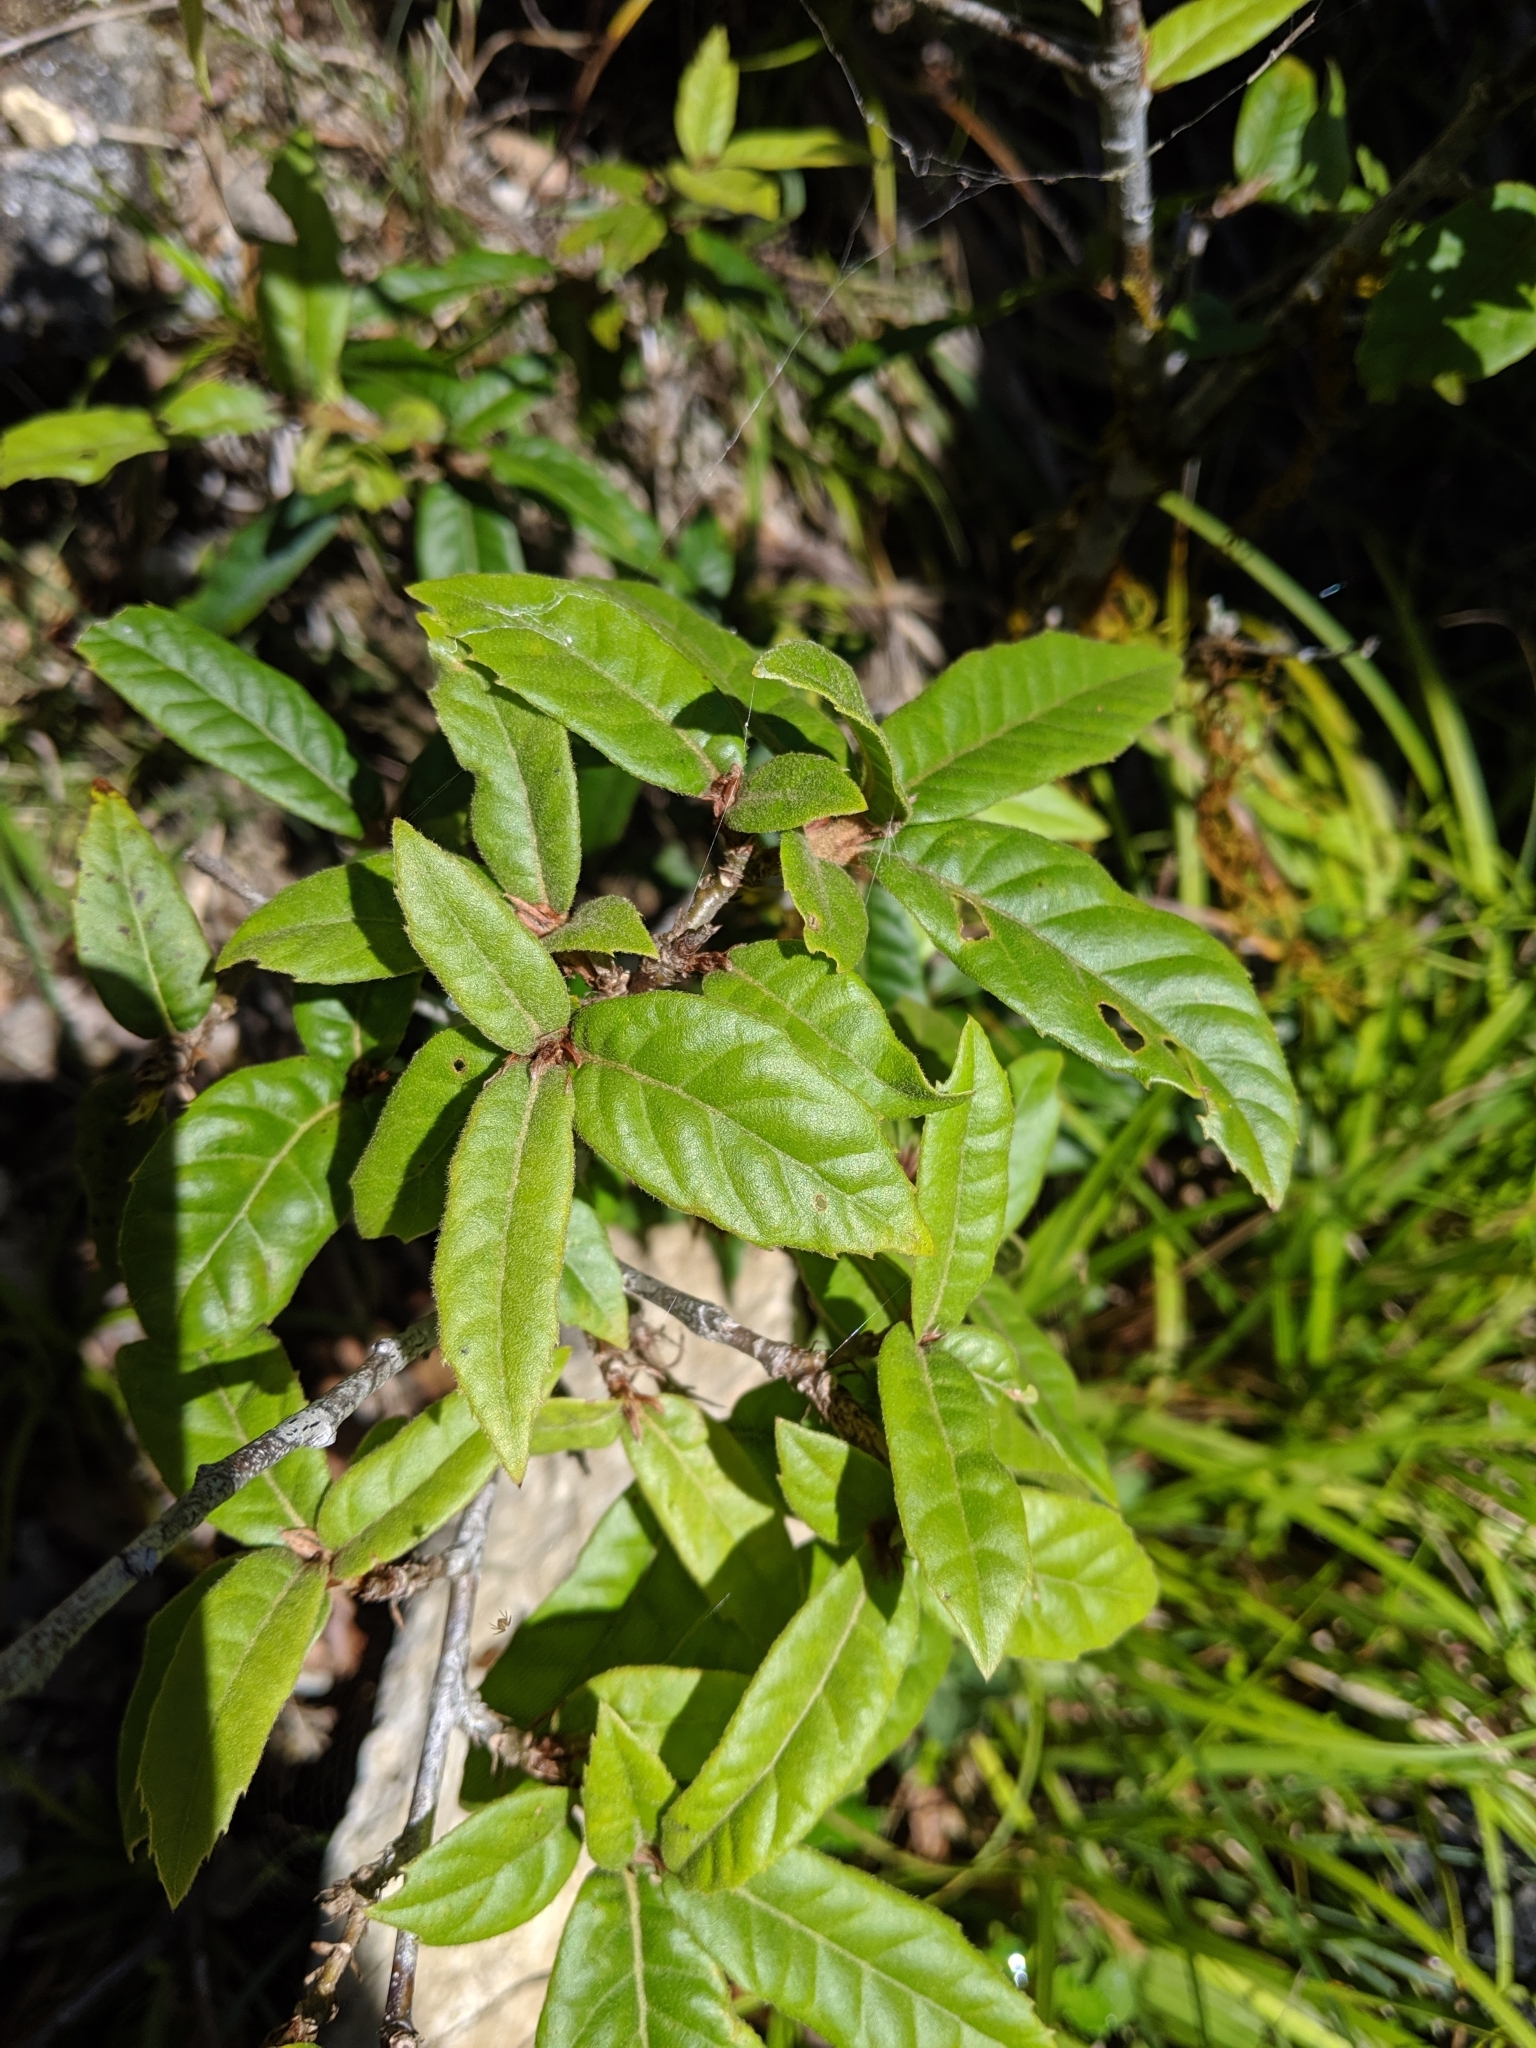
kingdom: Plantae
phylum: Tracheophyta
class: Magnoliopsida
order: Fagales
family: Fagaceae
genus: Quercus
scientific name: Quercus tatakaensis
